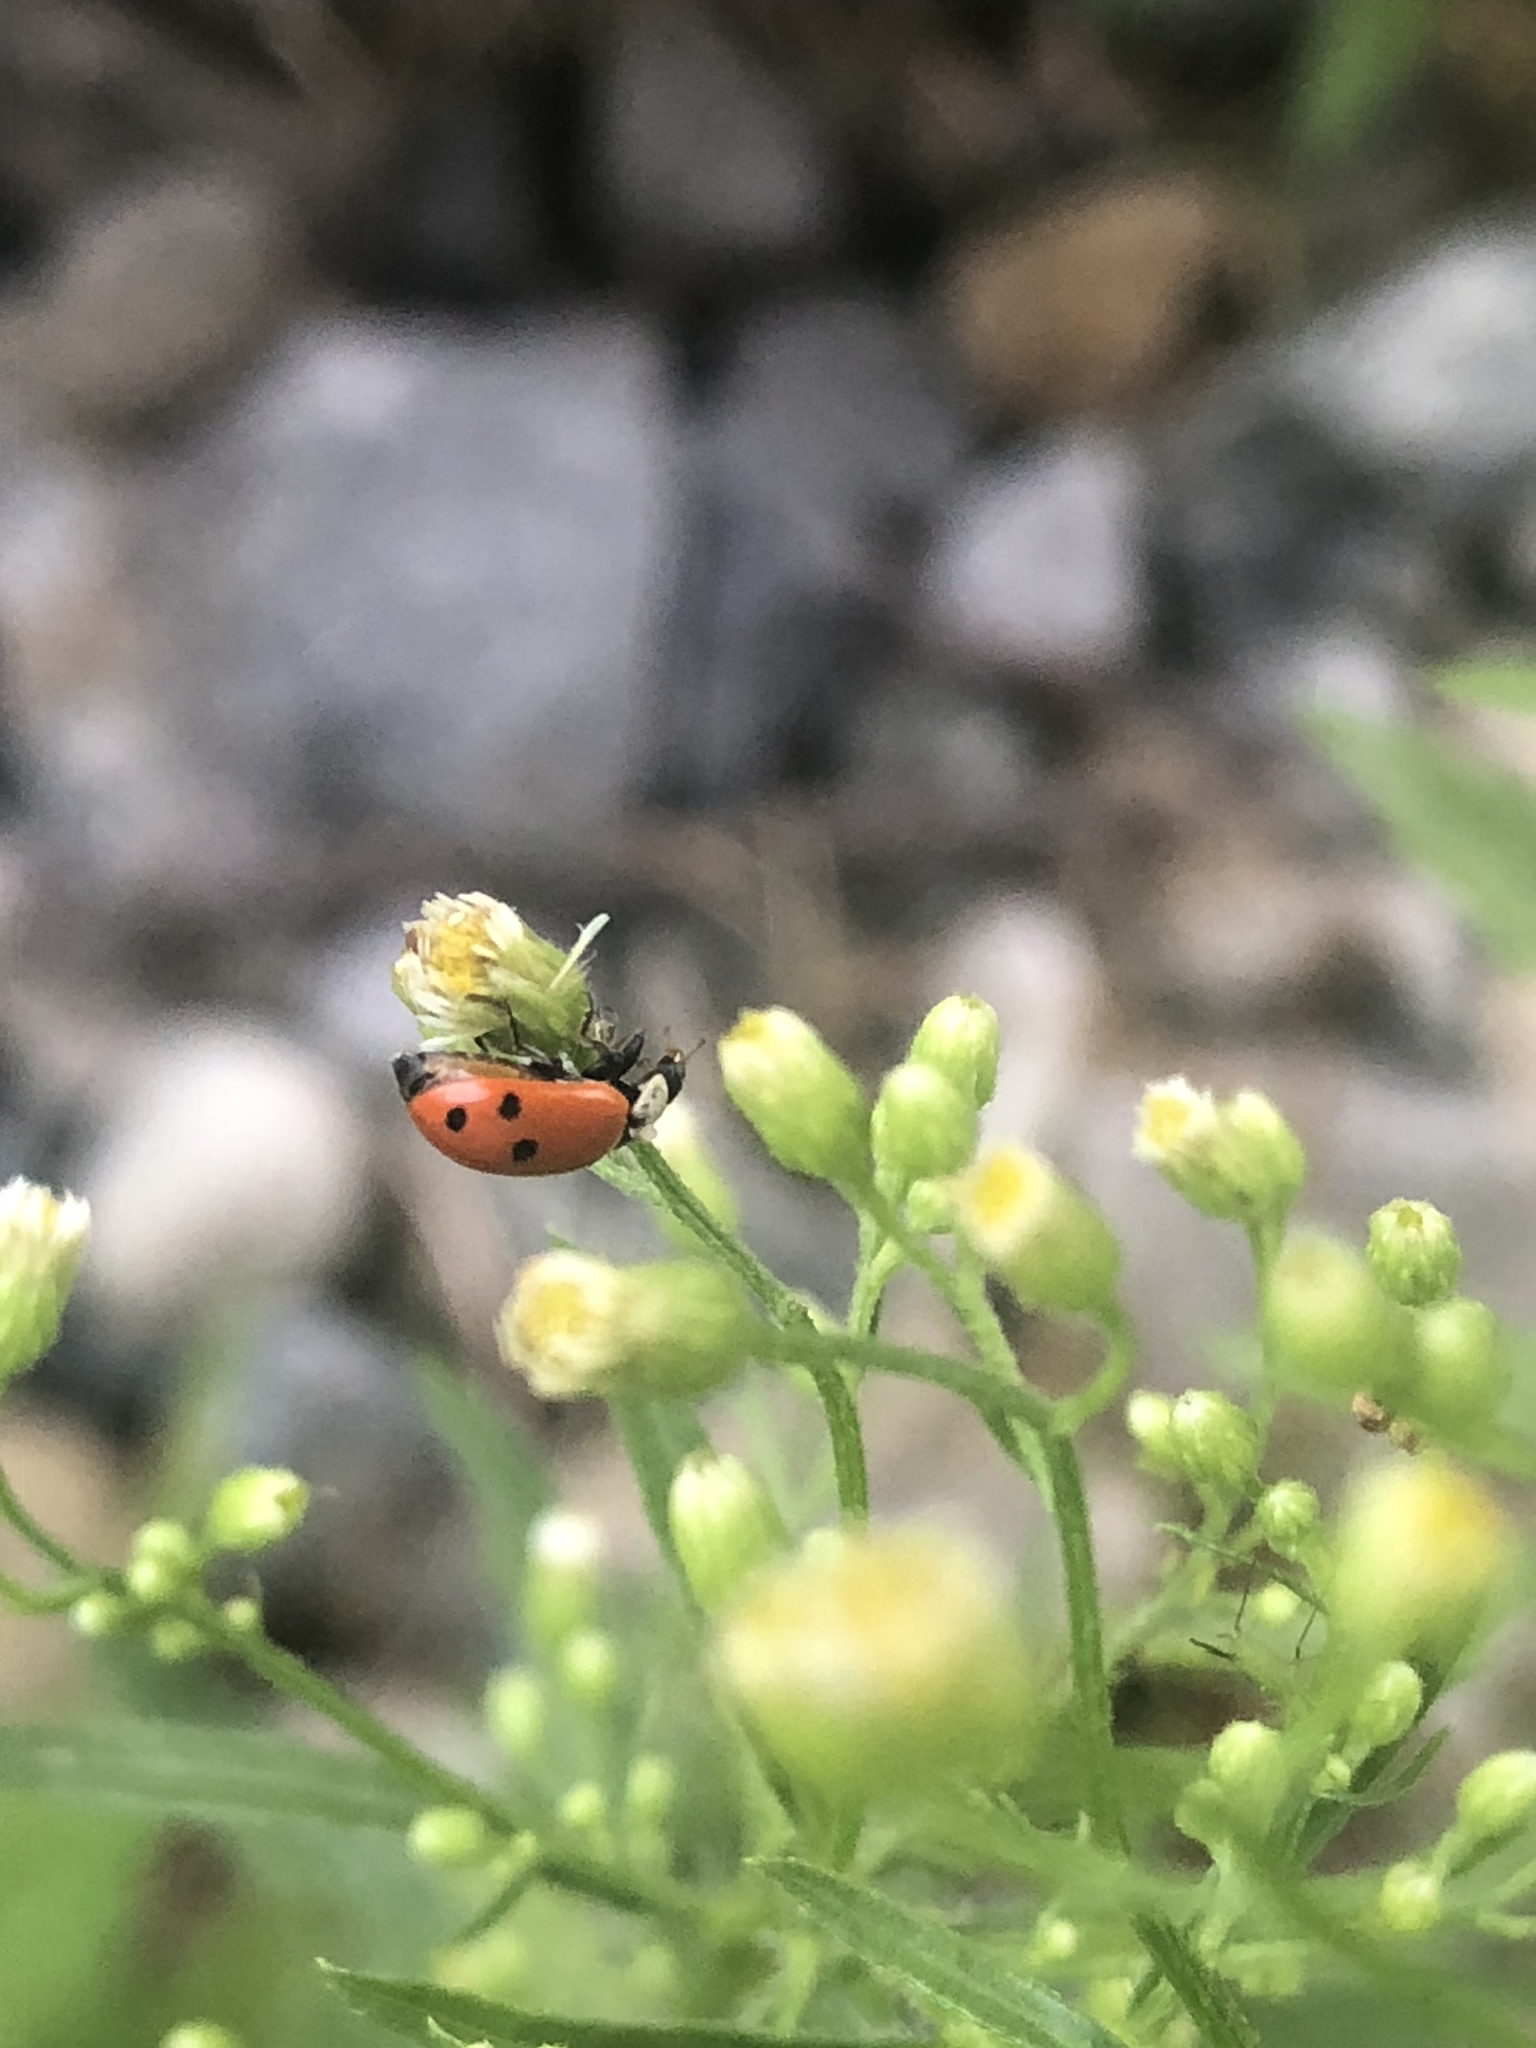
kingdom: Animalia
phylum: Arthropoda
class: Insecta
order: Coleoptera
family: Coccinellidae
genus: Hippodamia
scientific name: Hippodamia variegata
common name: Ladybird beetle
